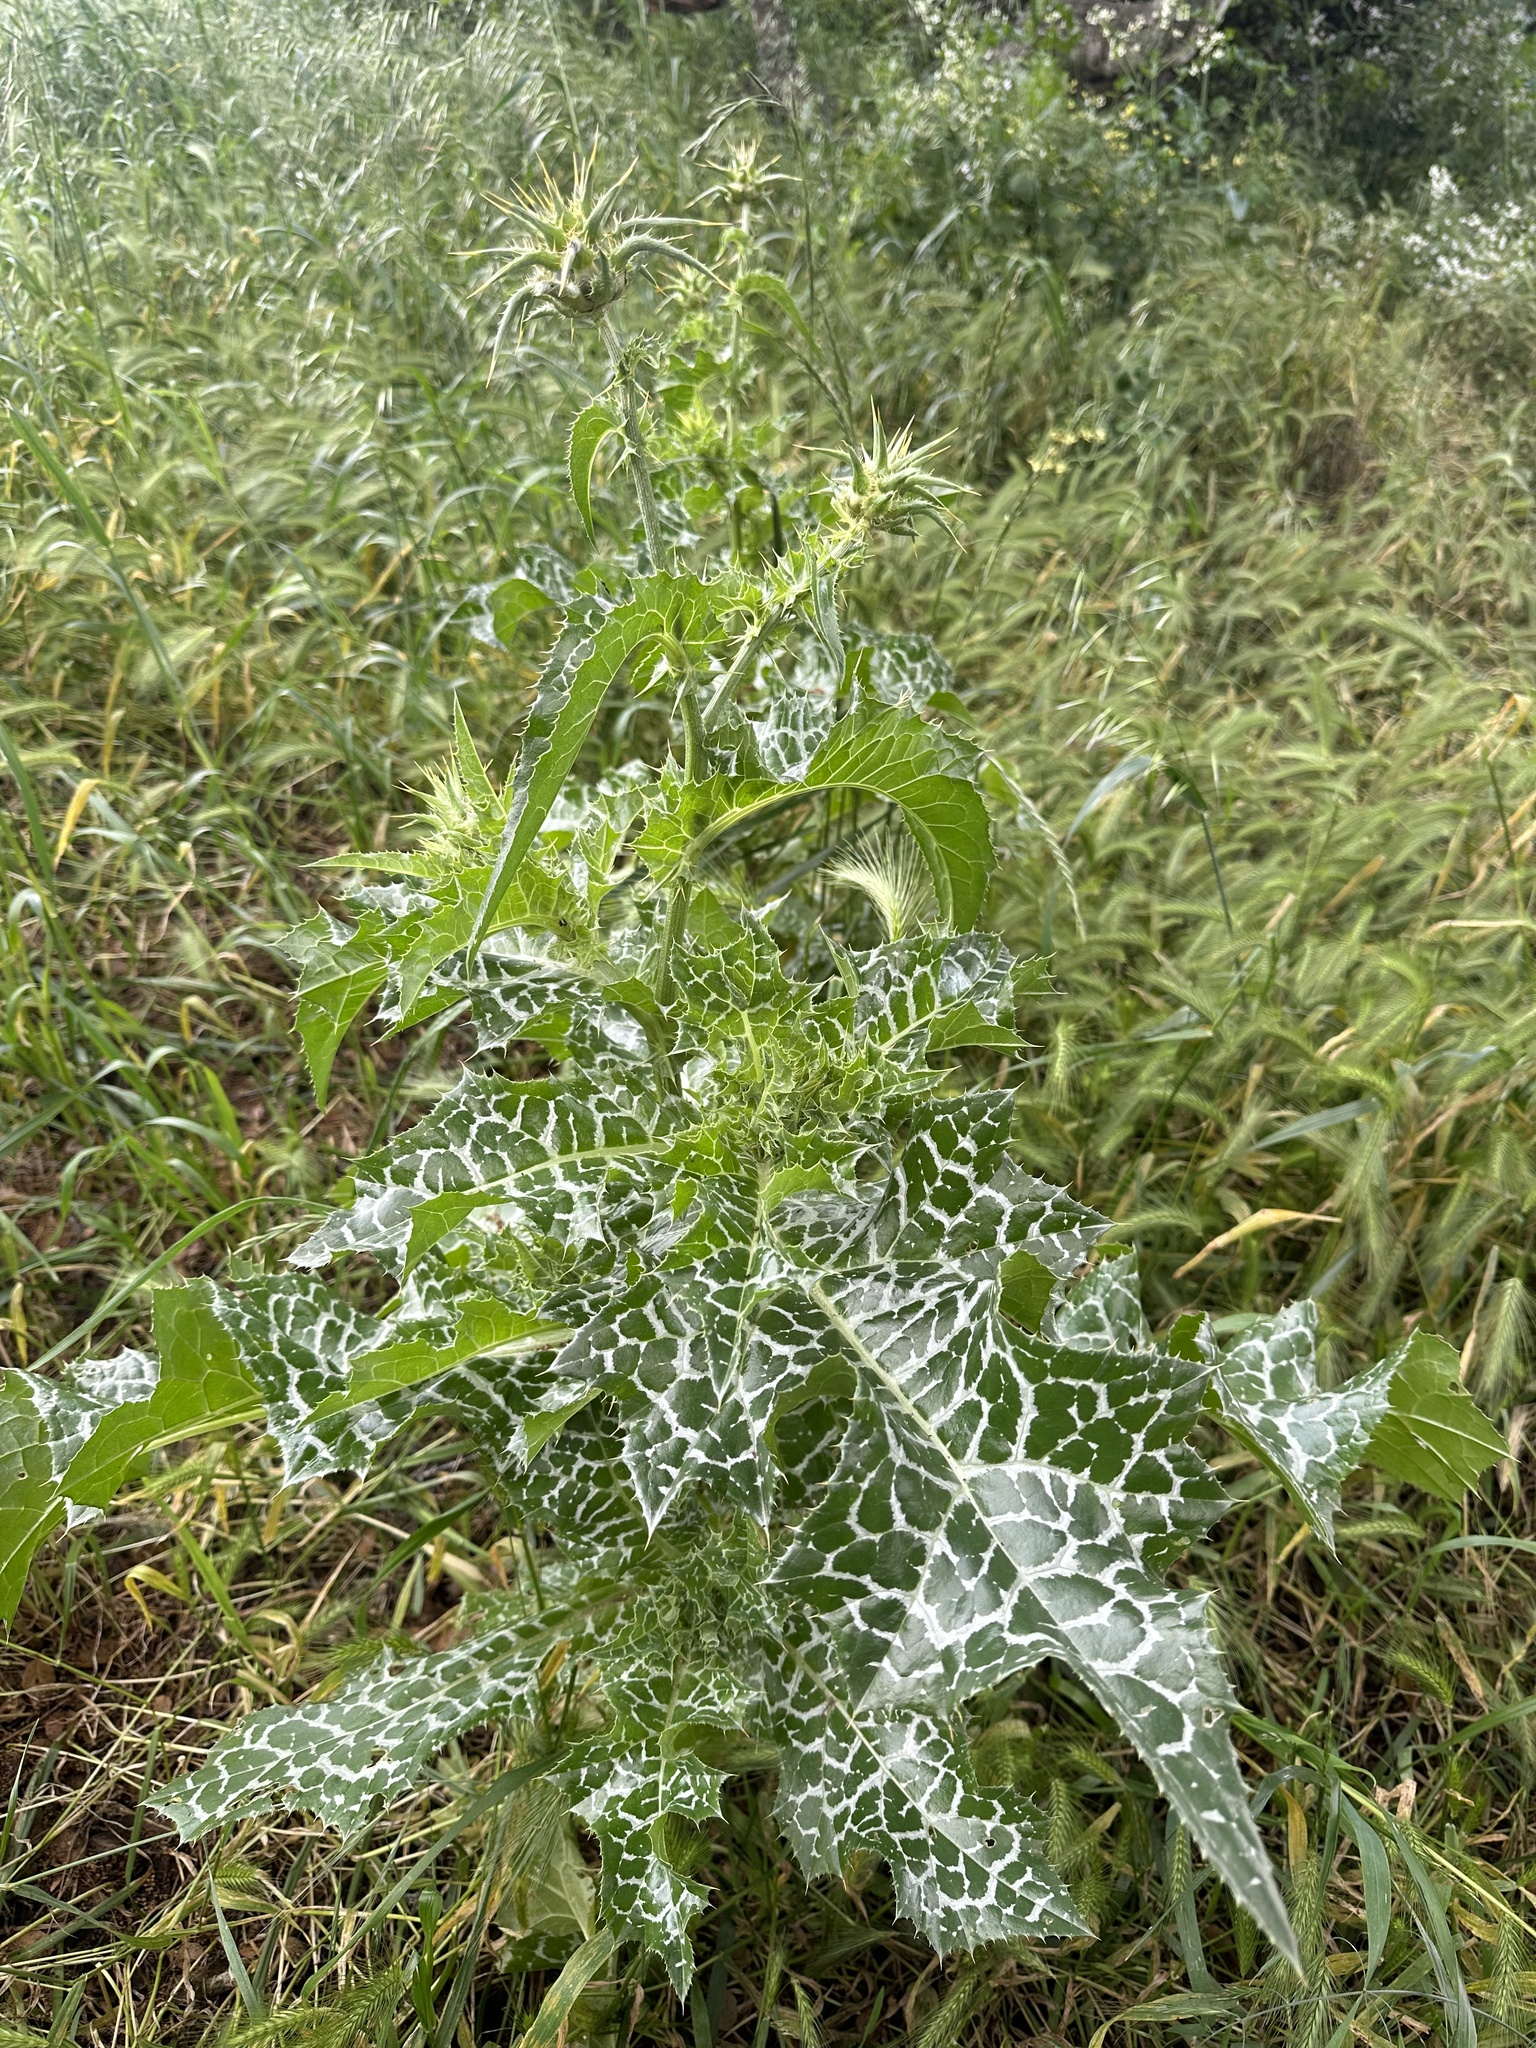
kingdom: Plantae
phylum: Tracheophyta
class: Magnoliopsida
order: Asterales
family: Asteraceae
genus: Silybum
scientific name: Silybum marianum
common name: Milk thistle
